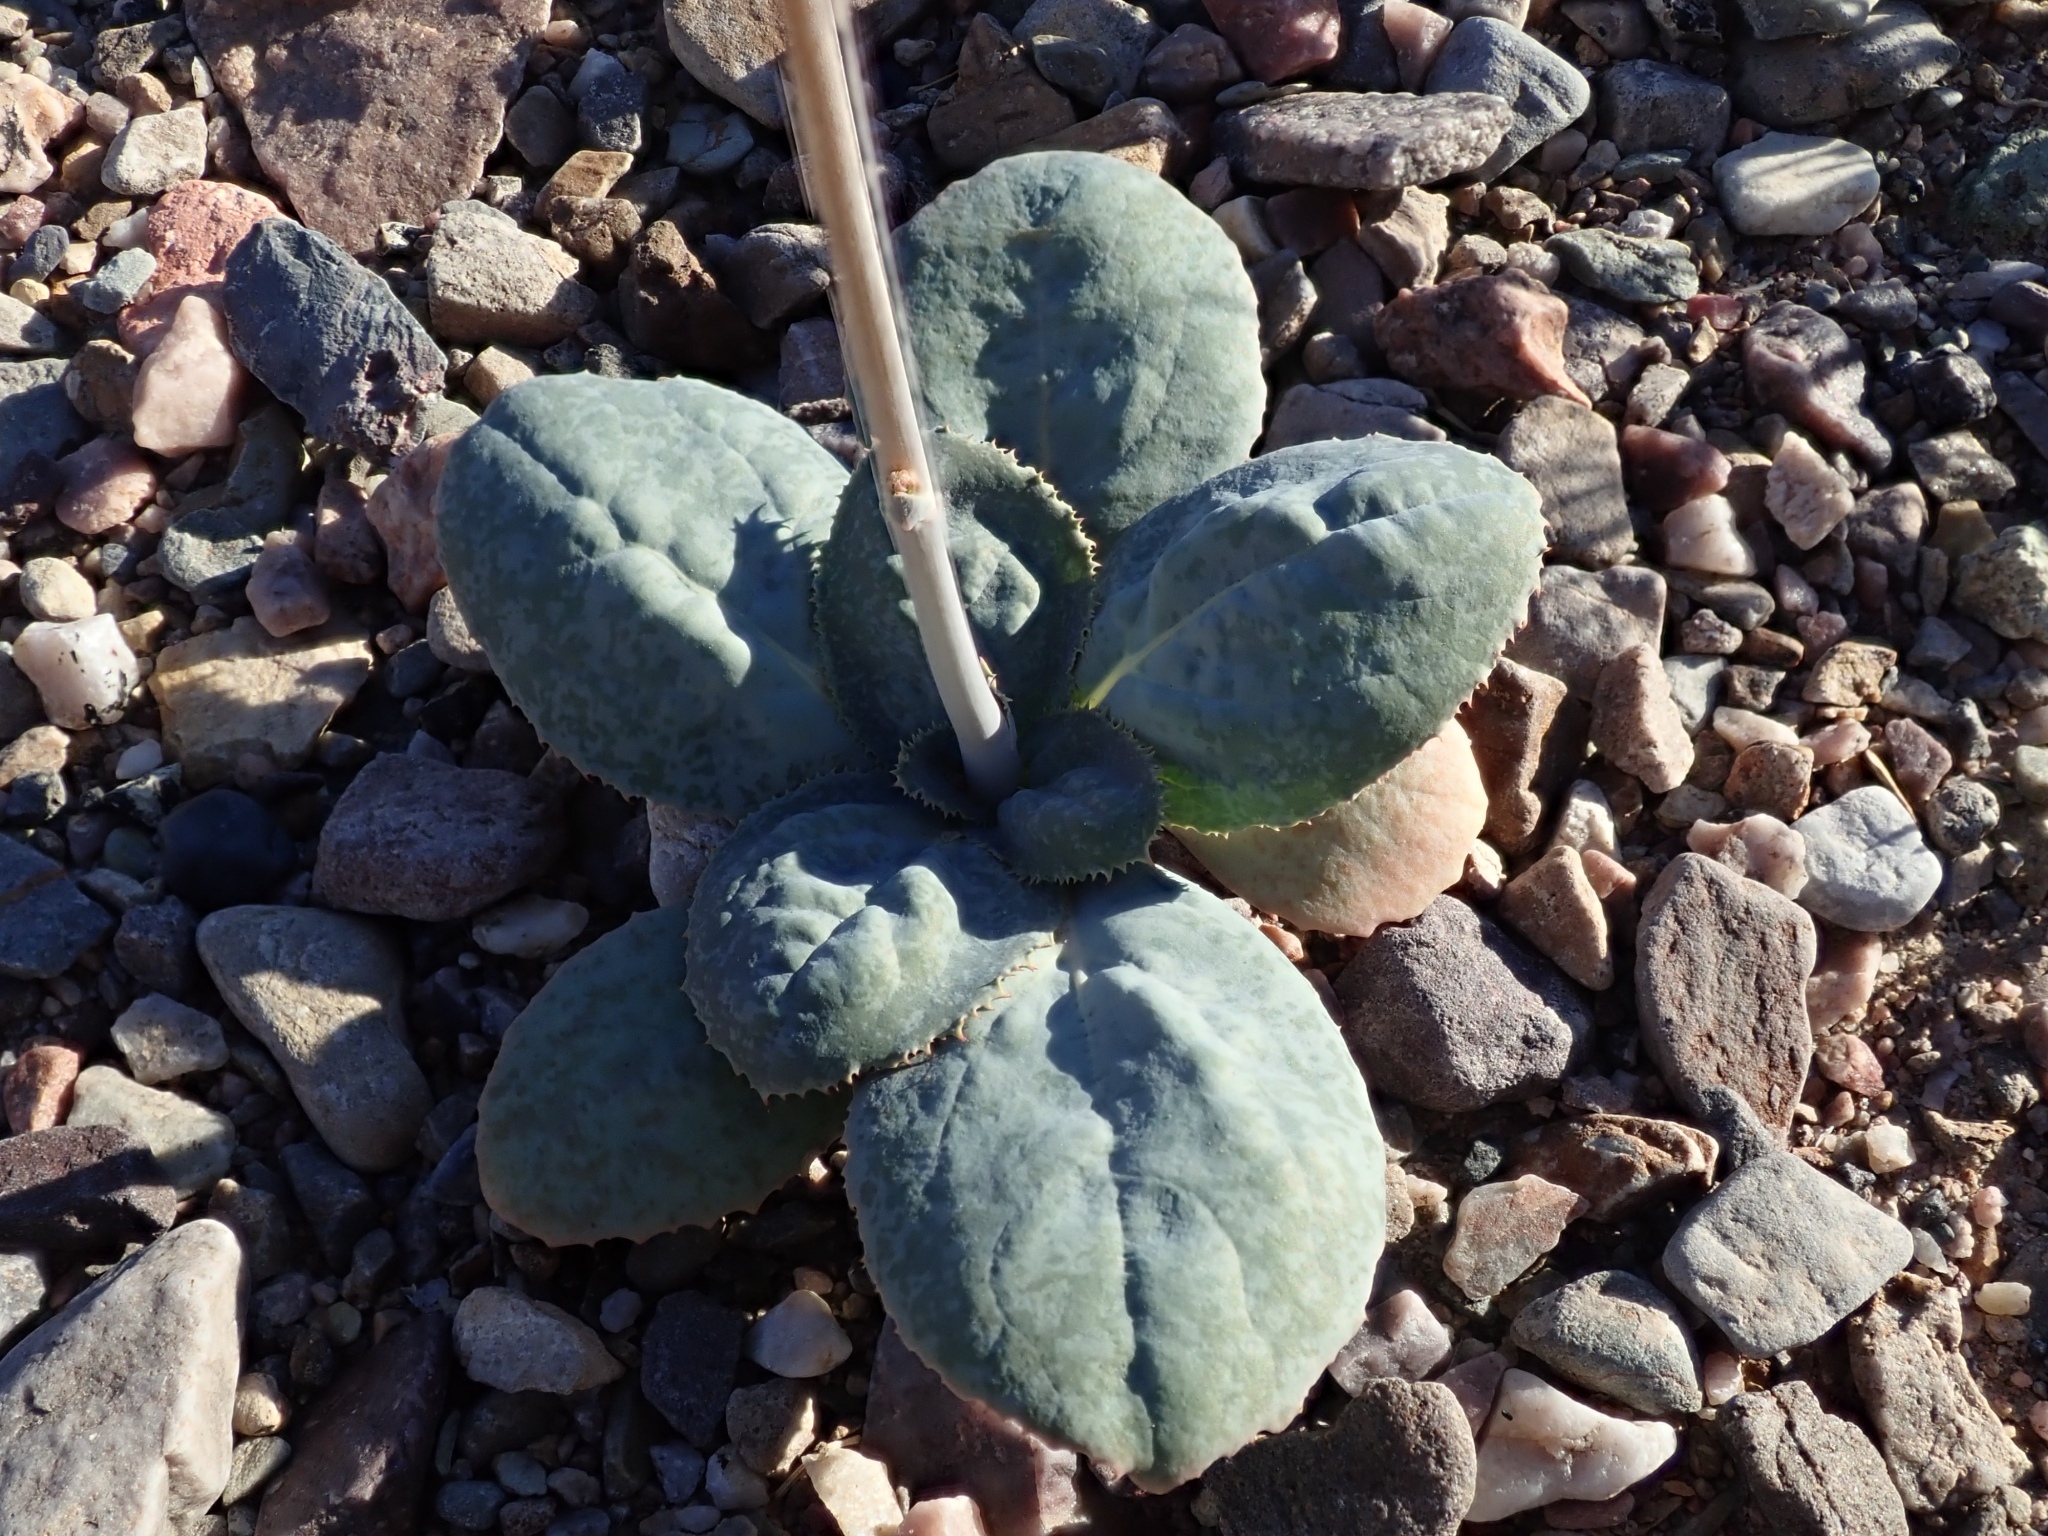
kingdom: Plantae
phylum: Tracheophyta
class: Magnoliopsida
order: Asterales
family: Asteraceae
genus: Atrichoseris
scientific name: Atrichoseris platyphylla
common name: Tobaccoweed
